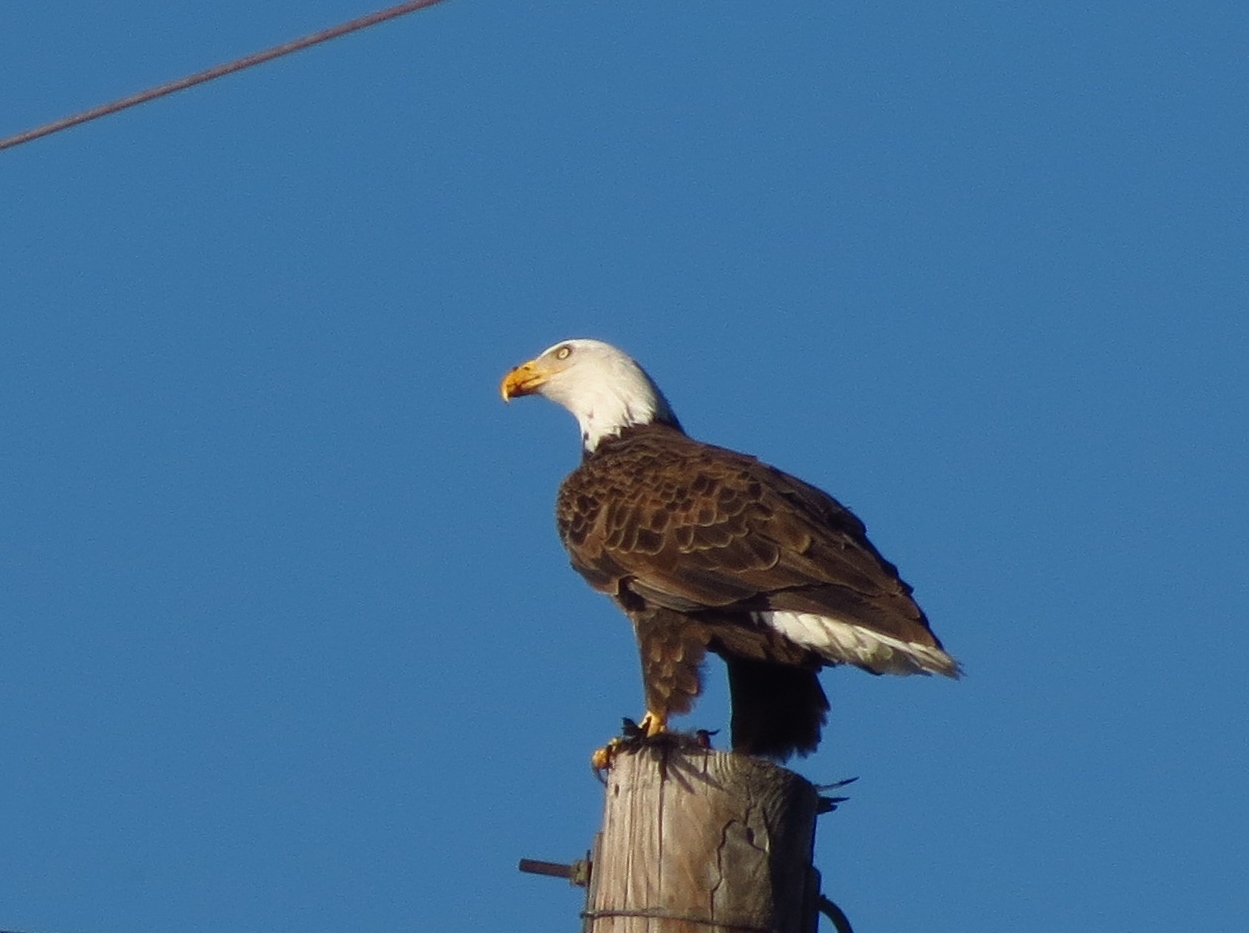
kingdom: Animalia
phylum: Chordata
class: Aves
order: Accipitriformes
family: Accipitridae
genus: Haliaeetus
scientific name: Haliaeetus leucocephalus
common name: Bald eagle
